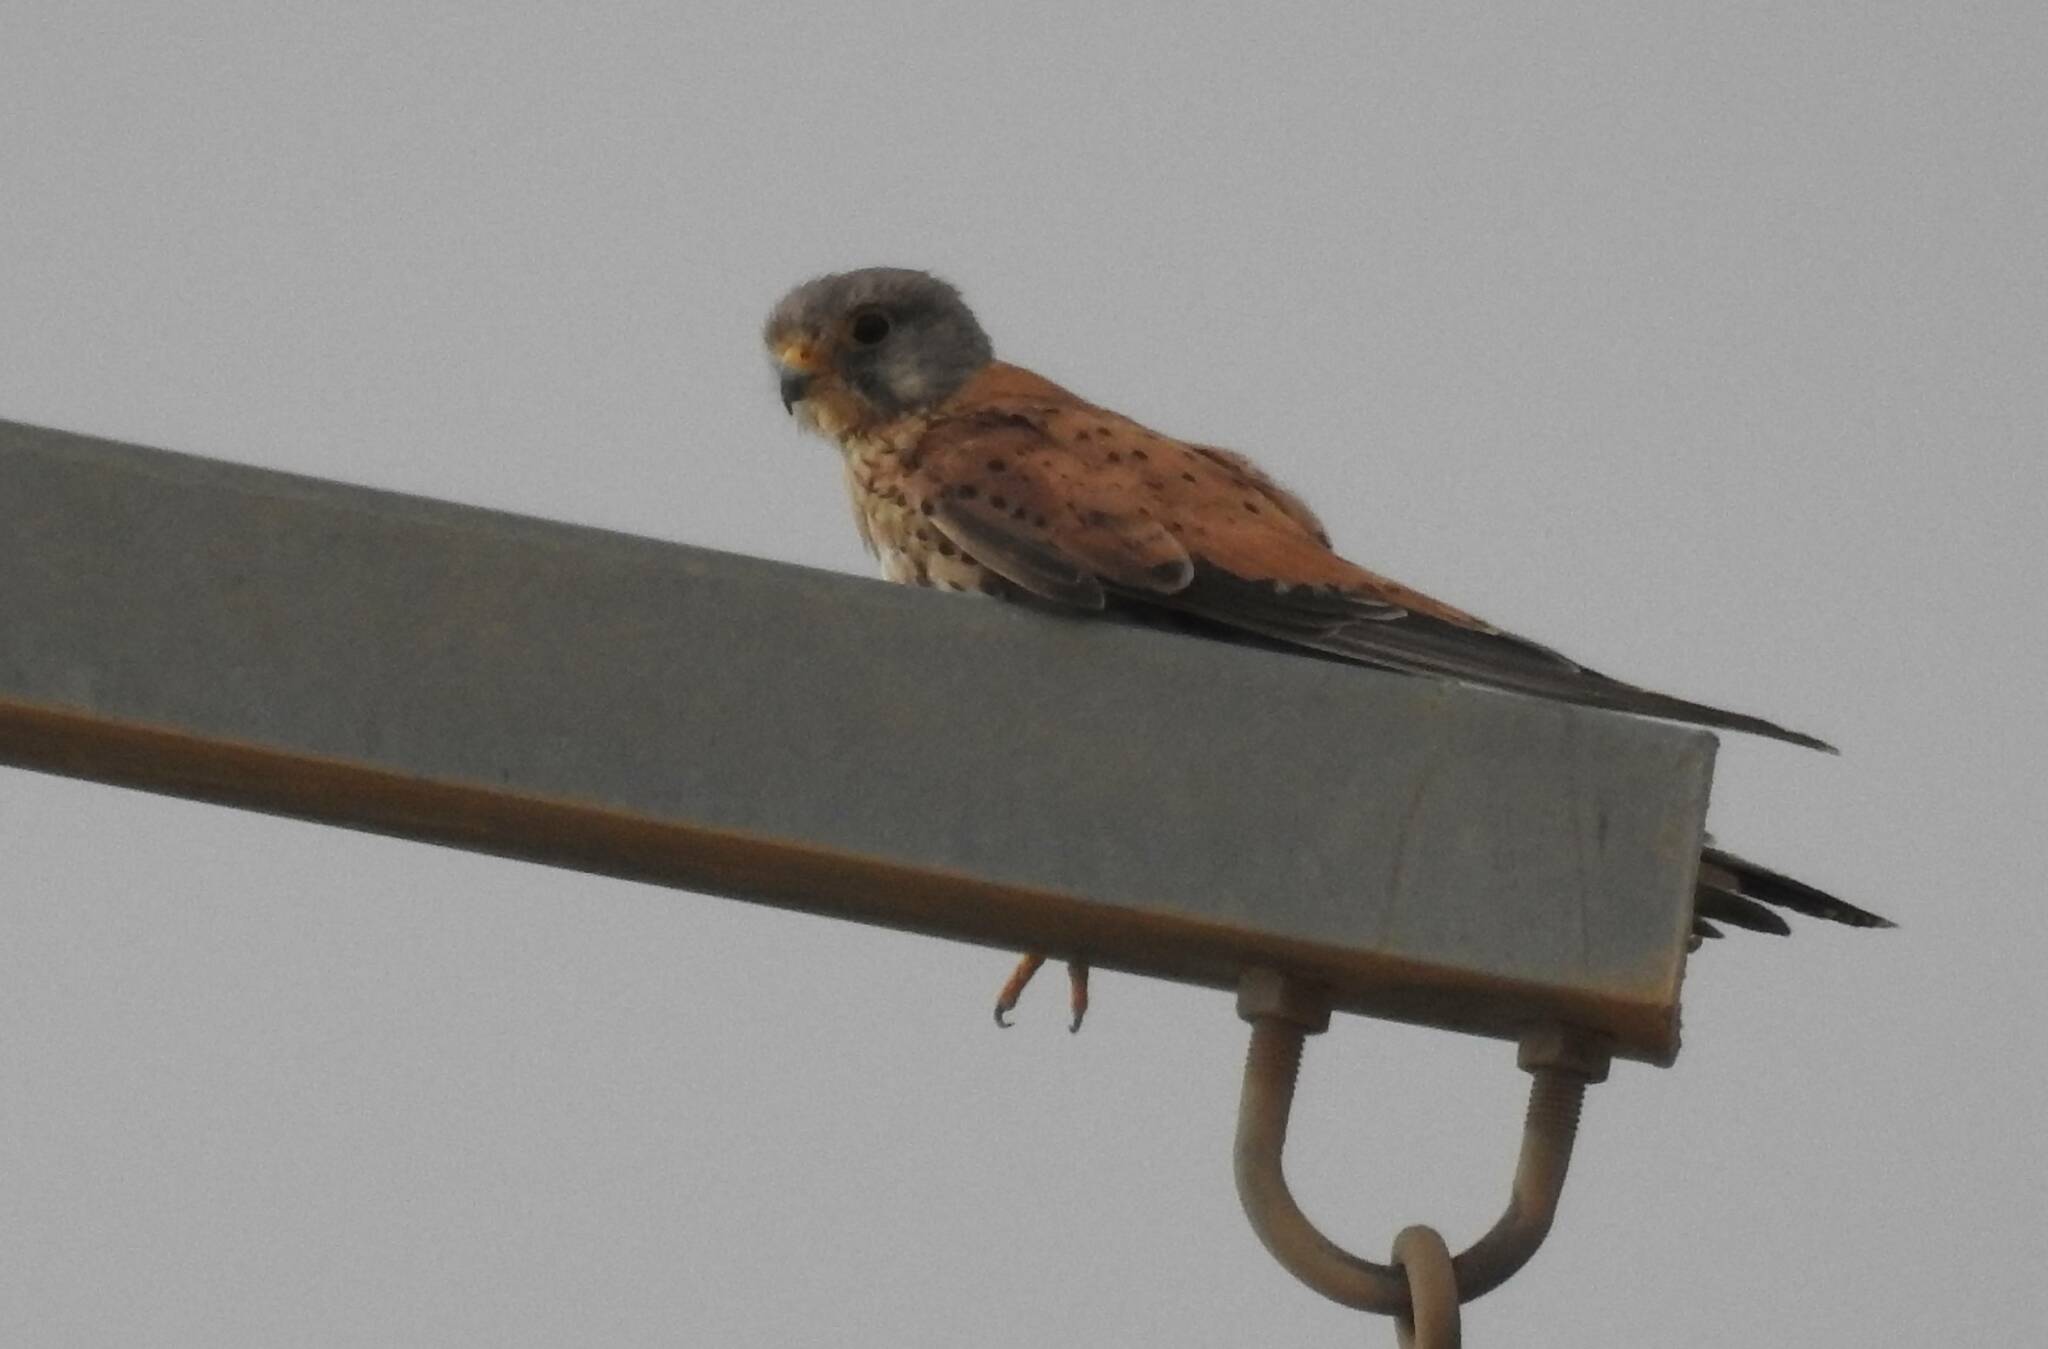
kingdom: Animalia
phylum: Chordata
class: Aves
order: Falconiformes
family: Falconidae
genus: Falco
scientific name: Falco tinnunculus
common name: Common kestrel
